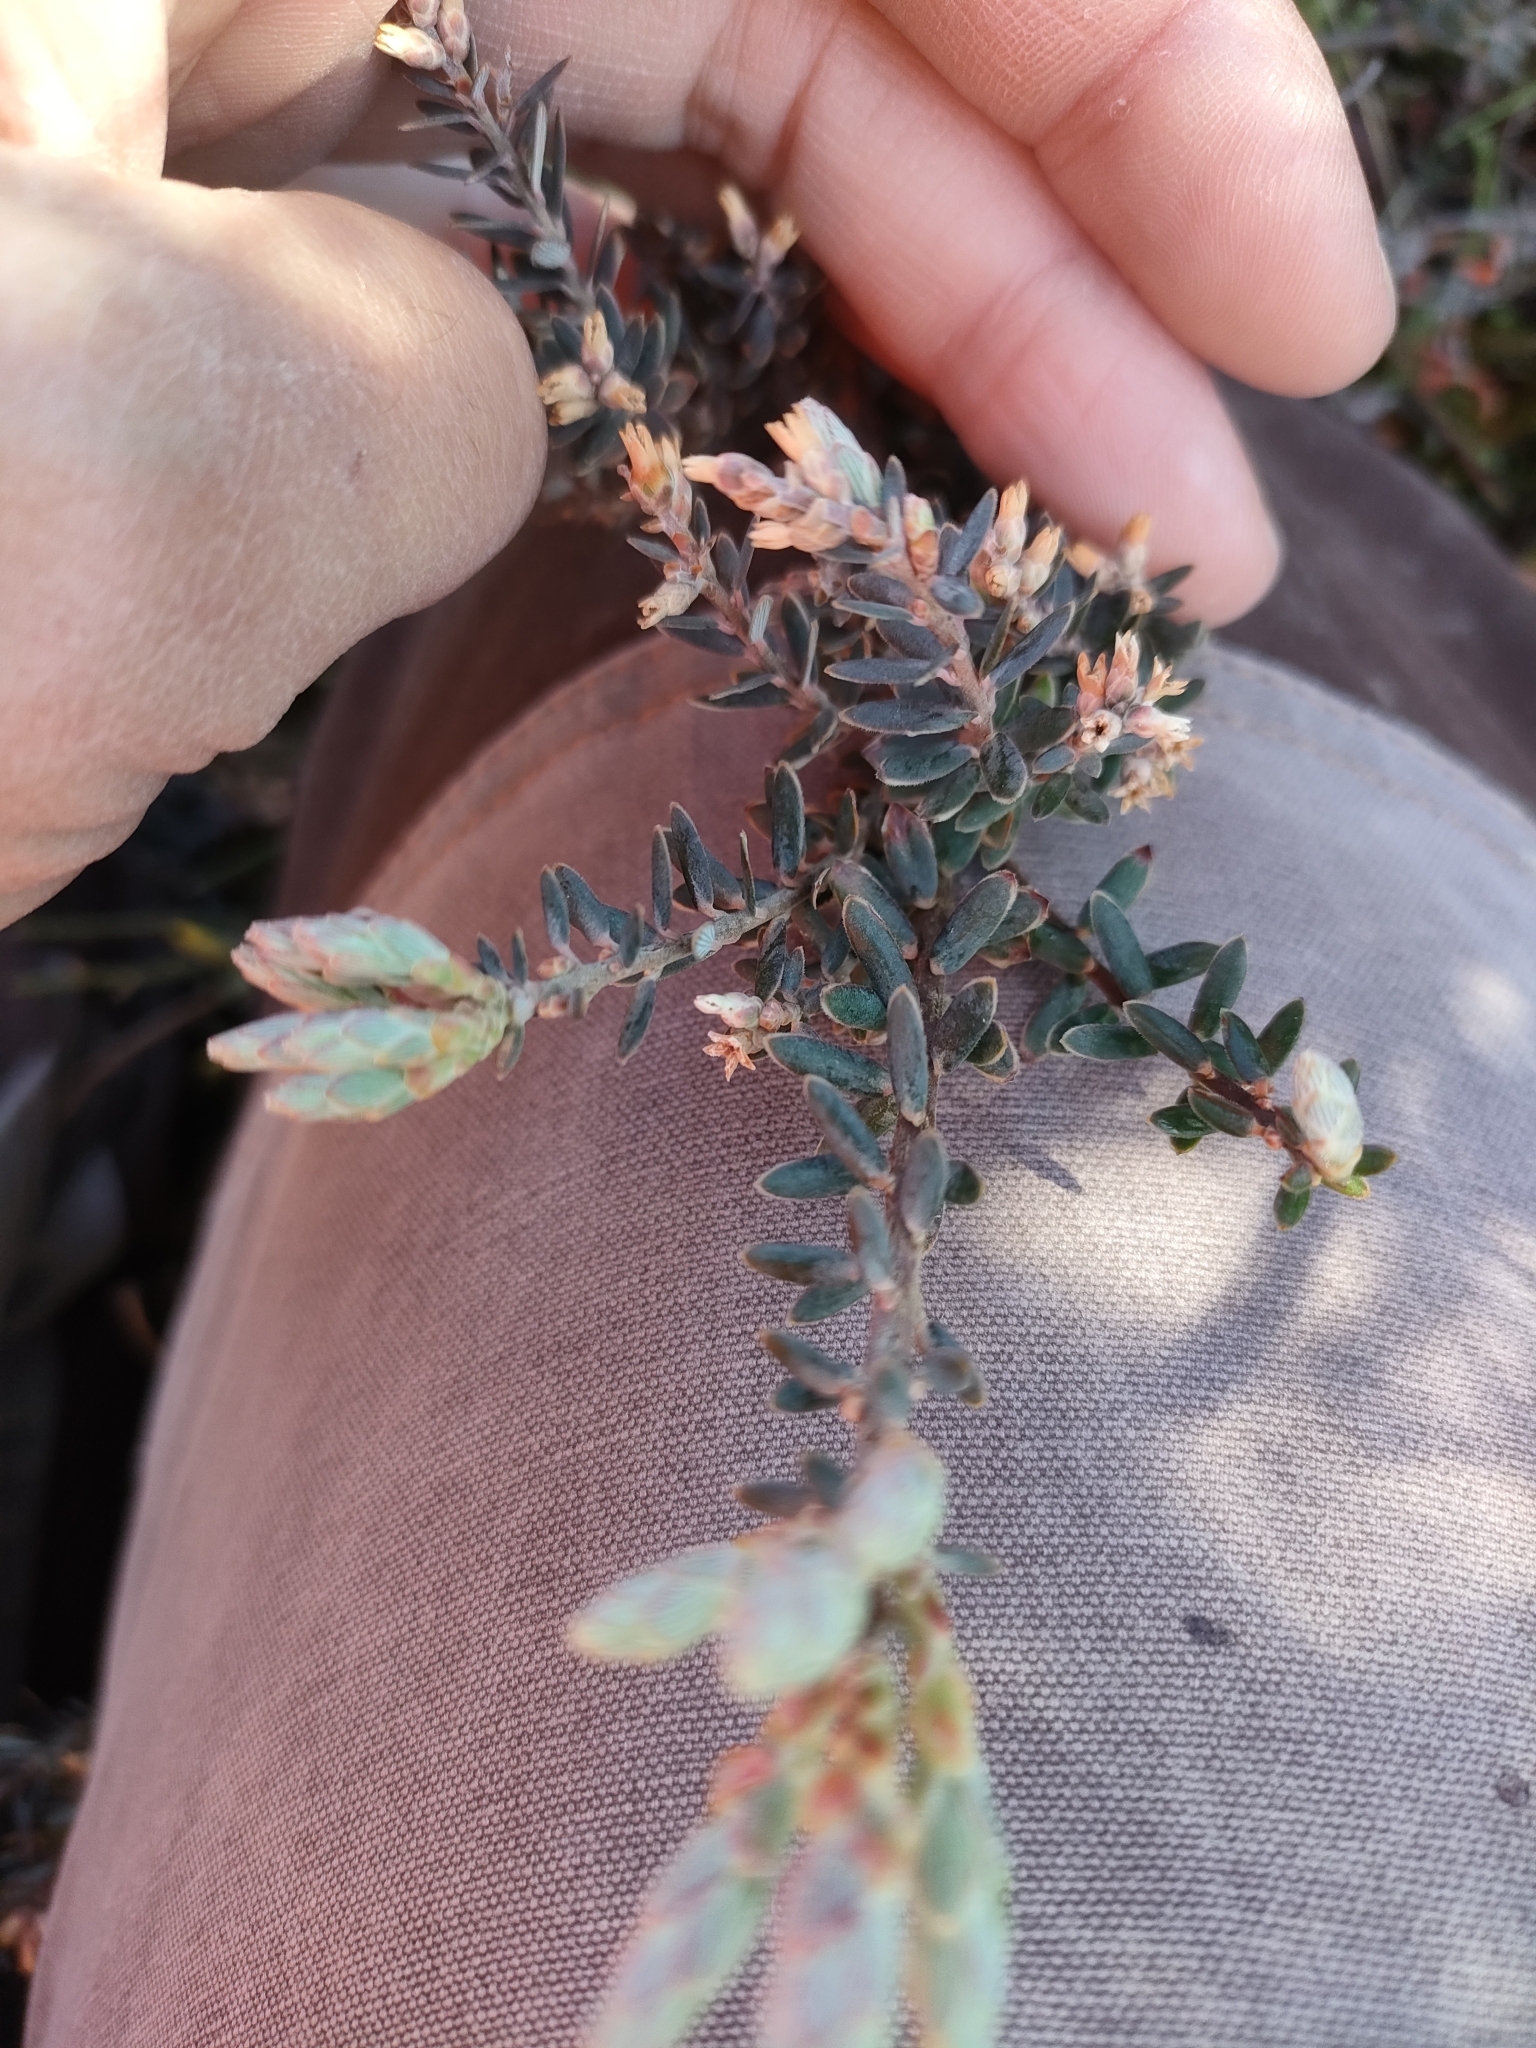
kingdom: Plantae
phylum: Tracheophyta
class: Magnoliopsida
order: Ericales
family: Ericaceae
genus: Acrothamnus
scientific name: Acrothamnus colensoi
